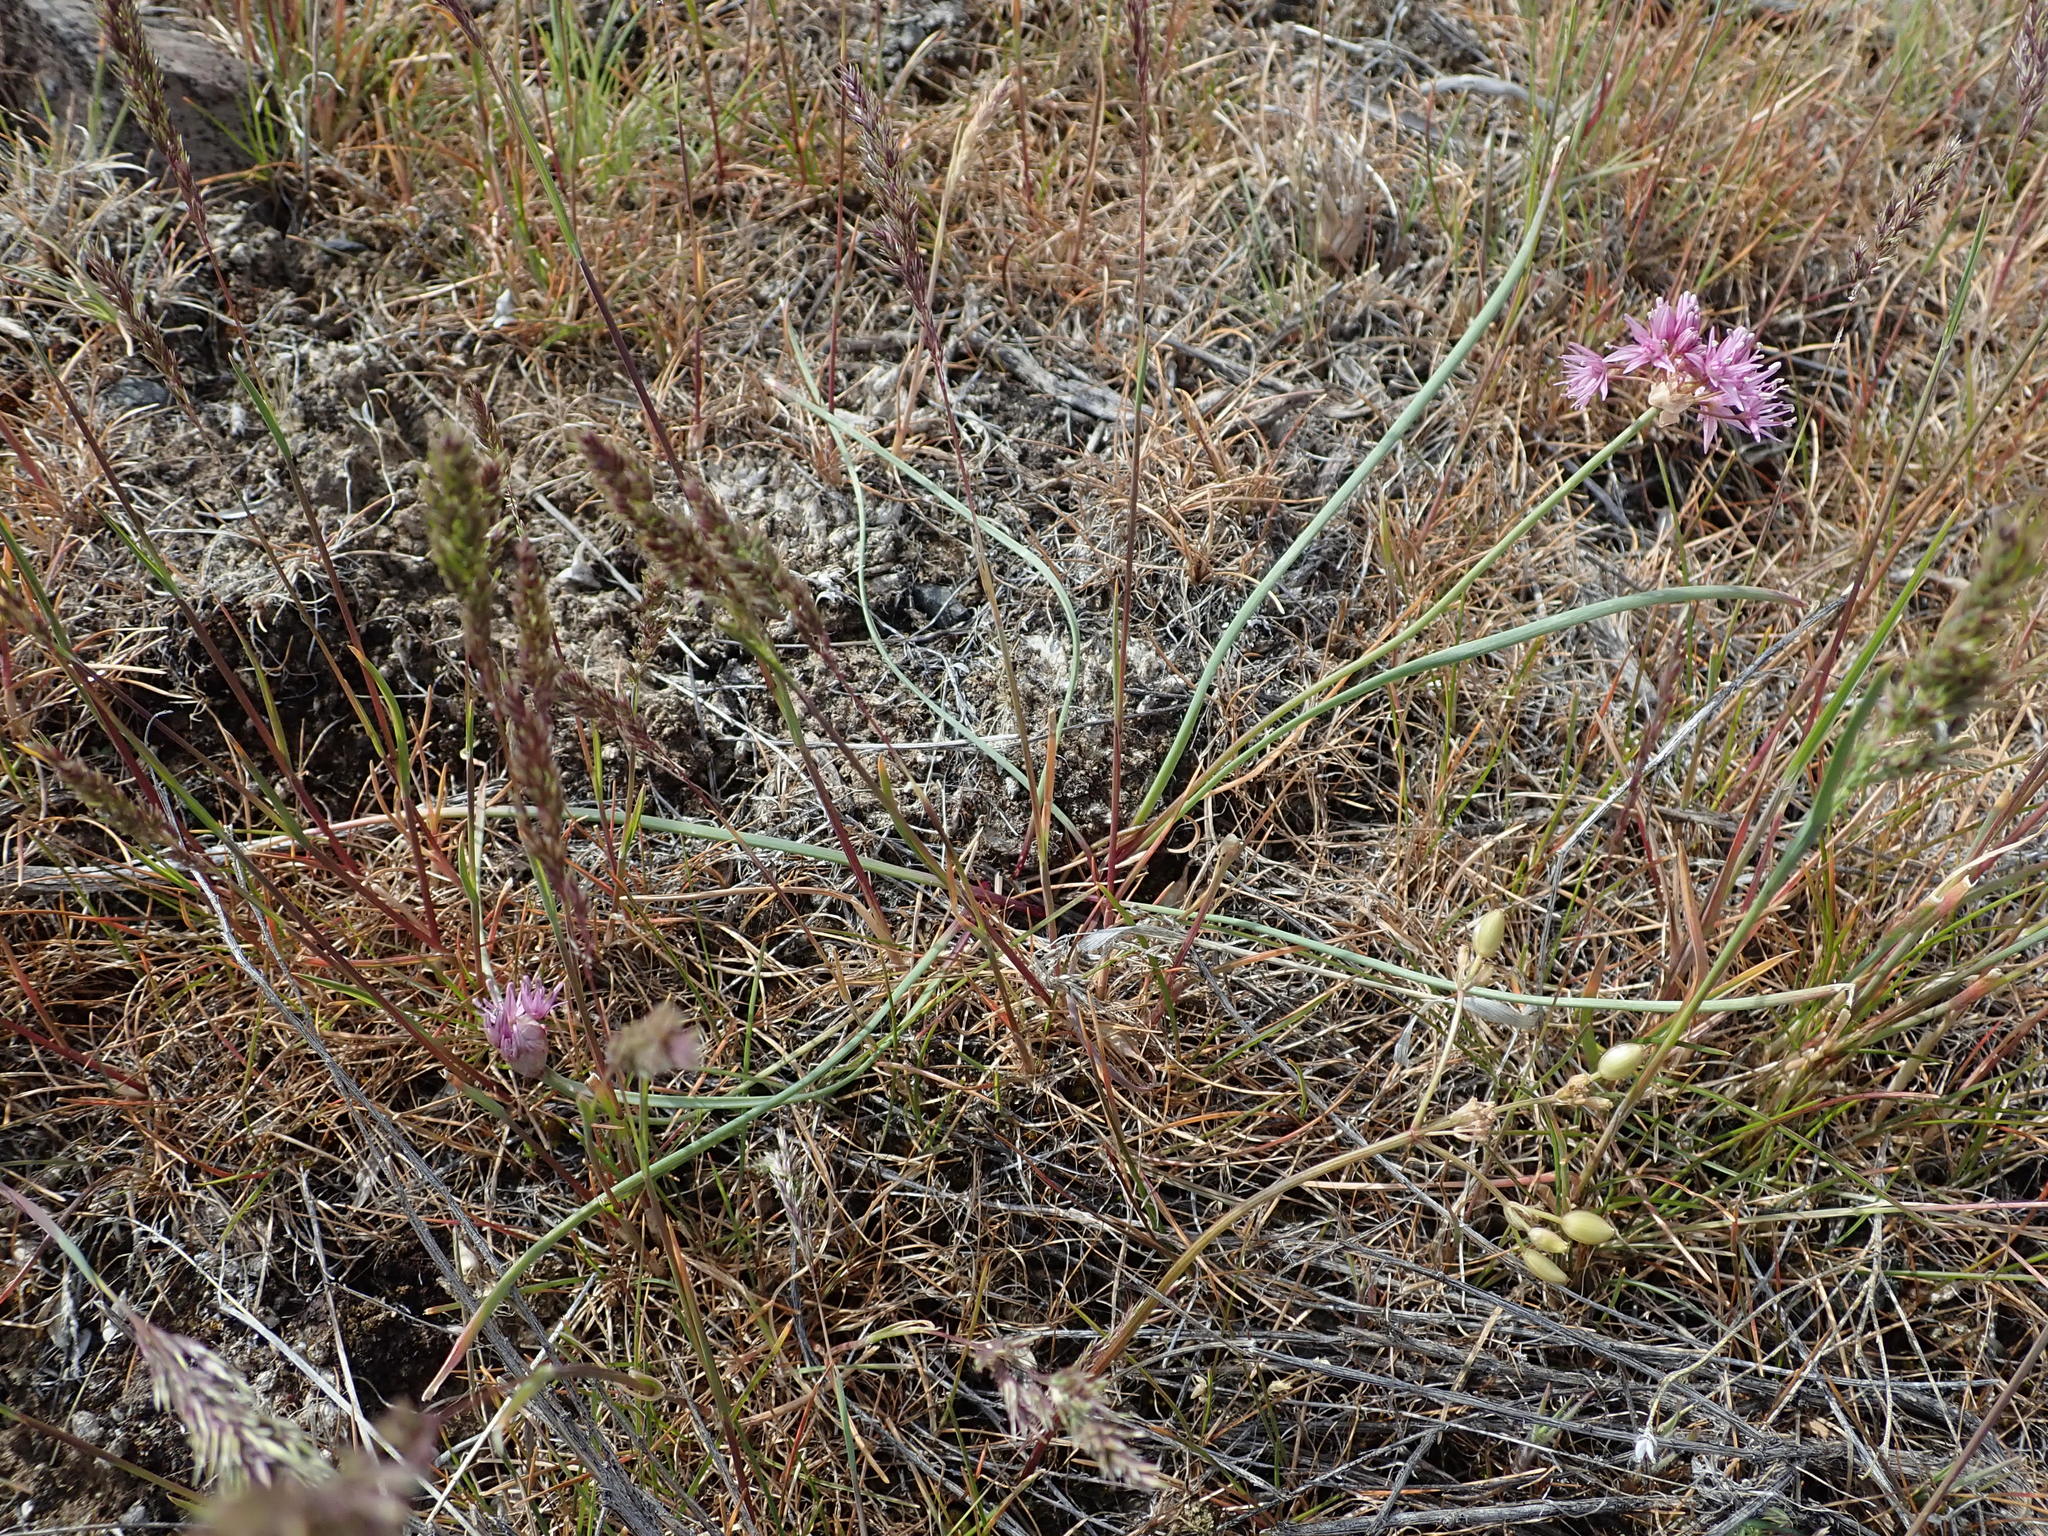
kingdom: Plantae
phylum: Tracheophyta
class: Liliopsida
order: Asparagales
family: Amaryllidaceae
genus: Allium
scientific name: Allium macrum
